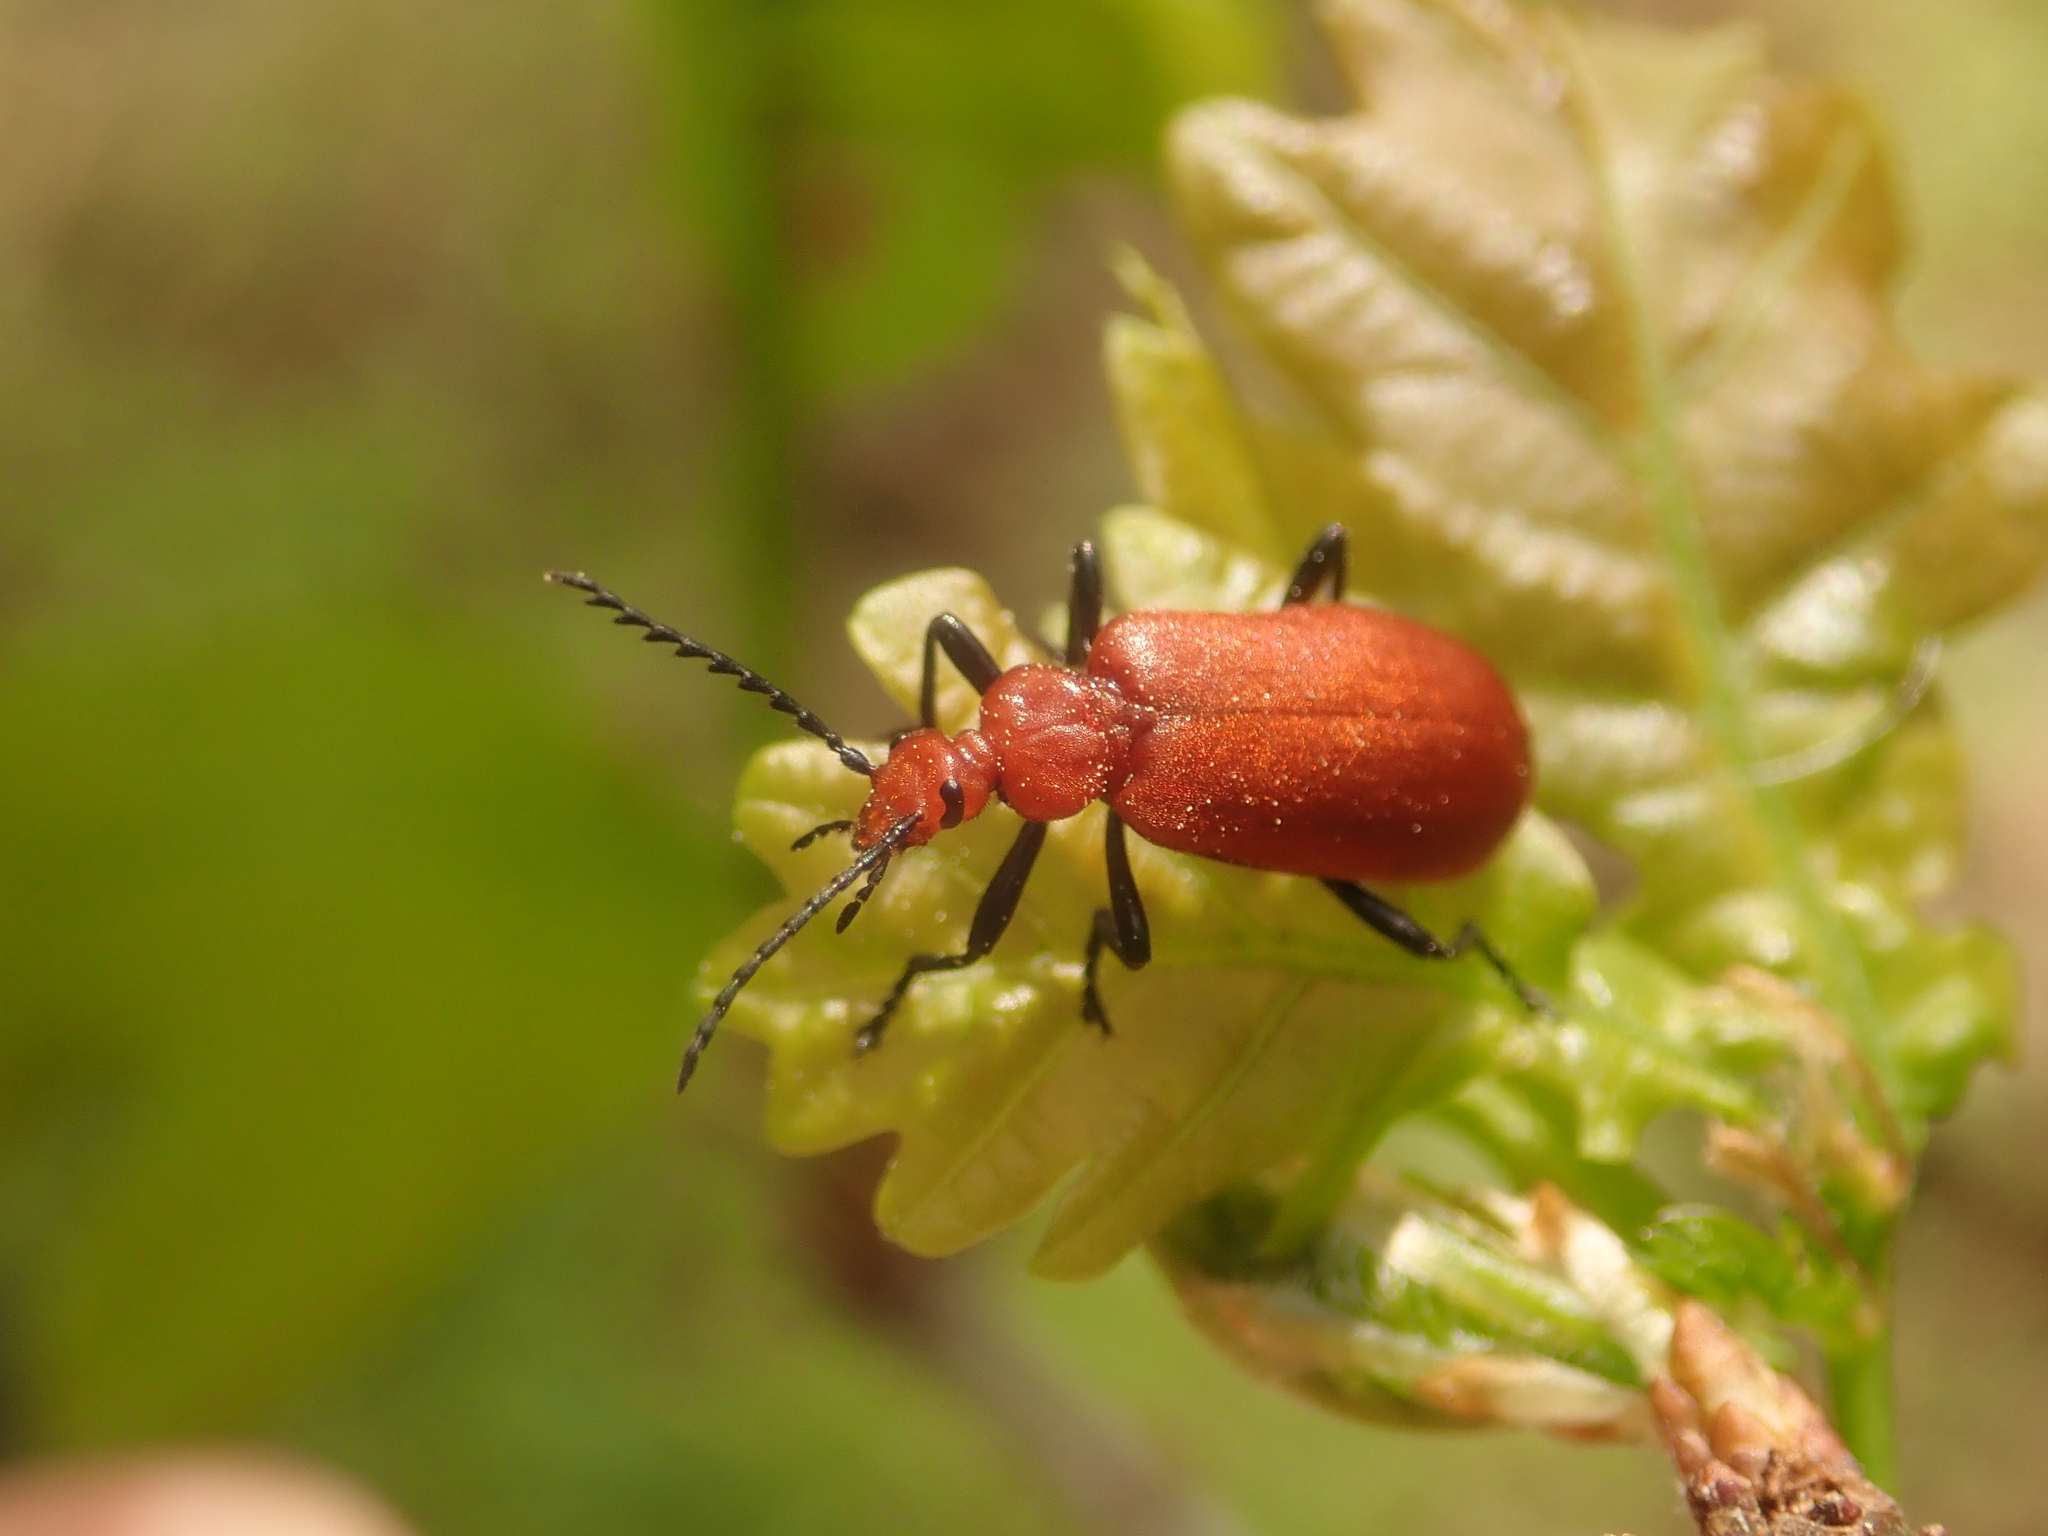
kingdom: Animalia
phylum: Arthropoda
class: Insecta
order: Coleoptera
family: Pyrochroidae
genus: Pyrochroa
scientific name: Pyrochroa serraticornis
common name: Red-headed cardinal beetle
